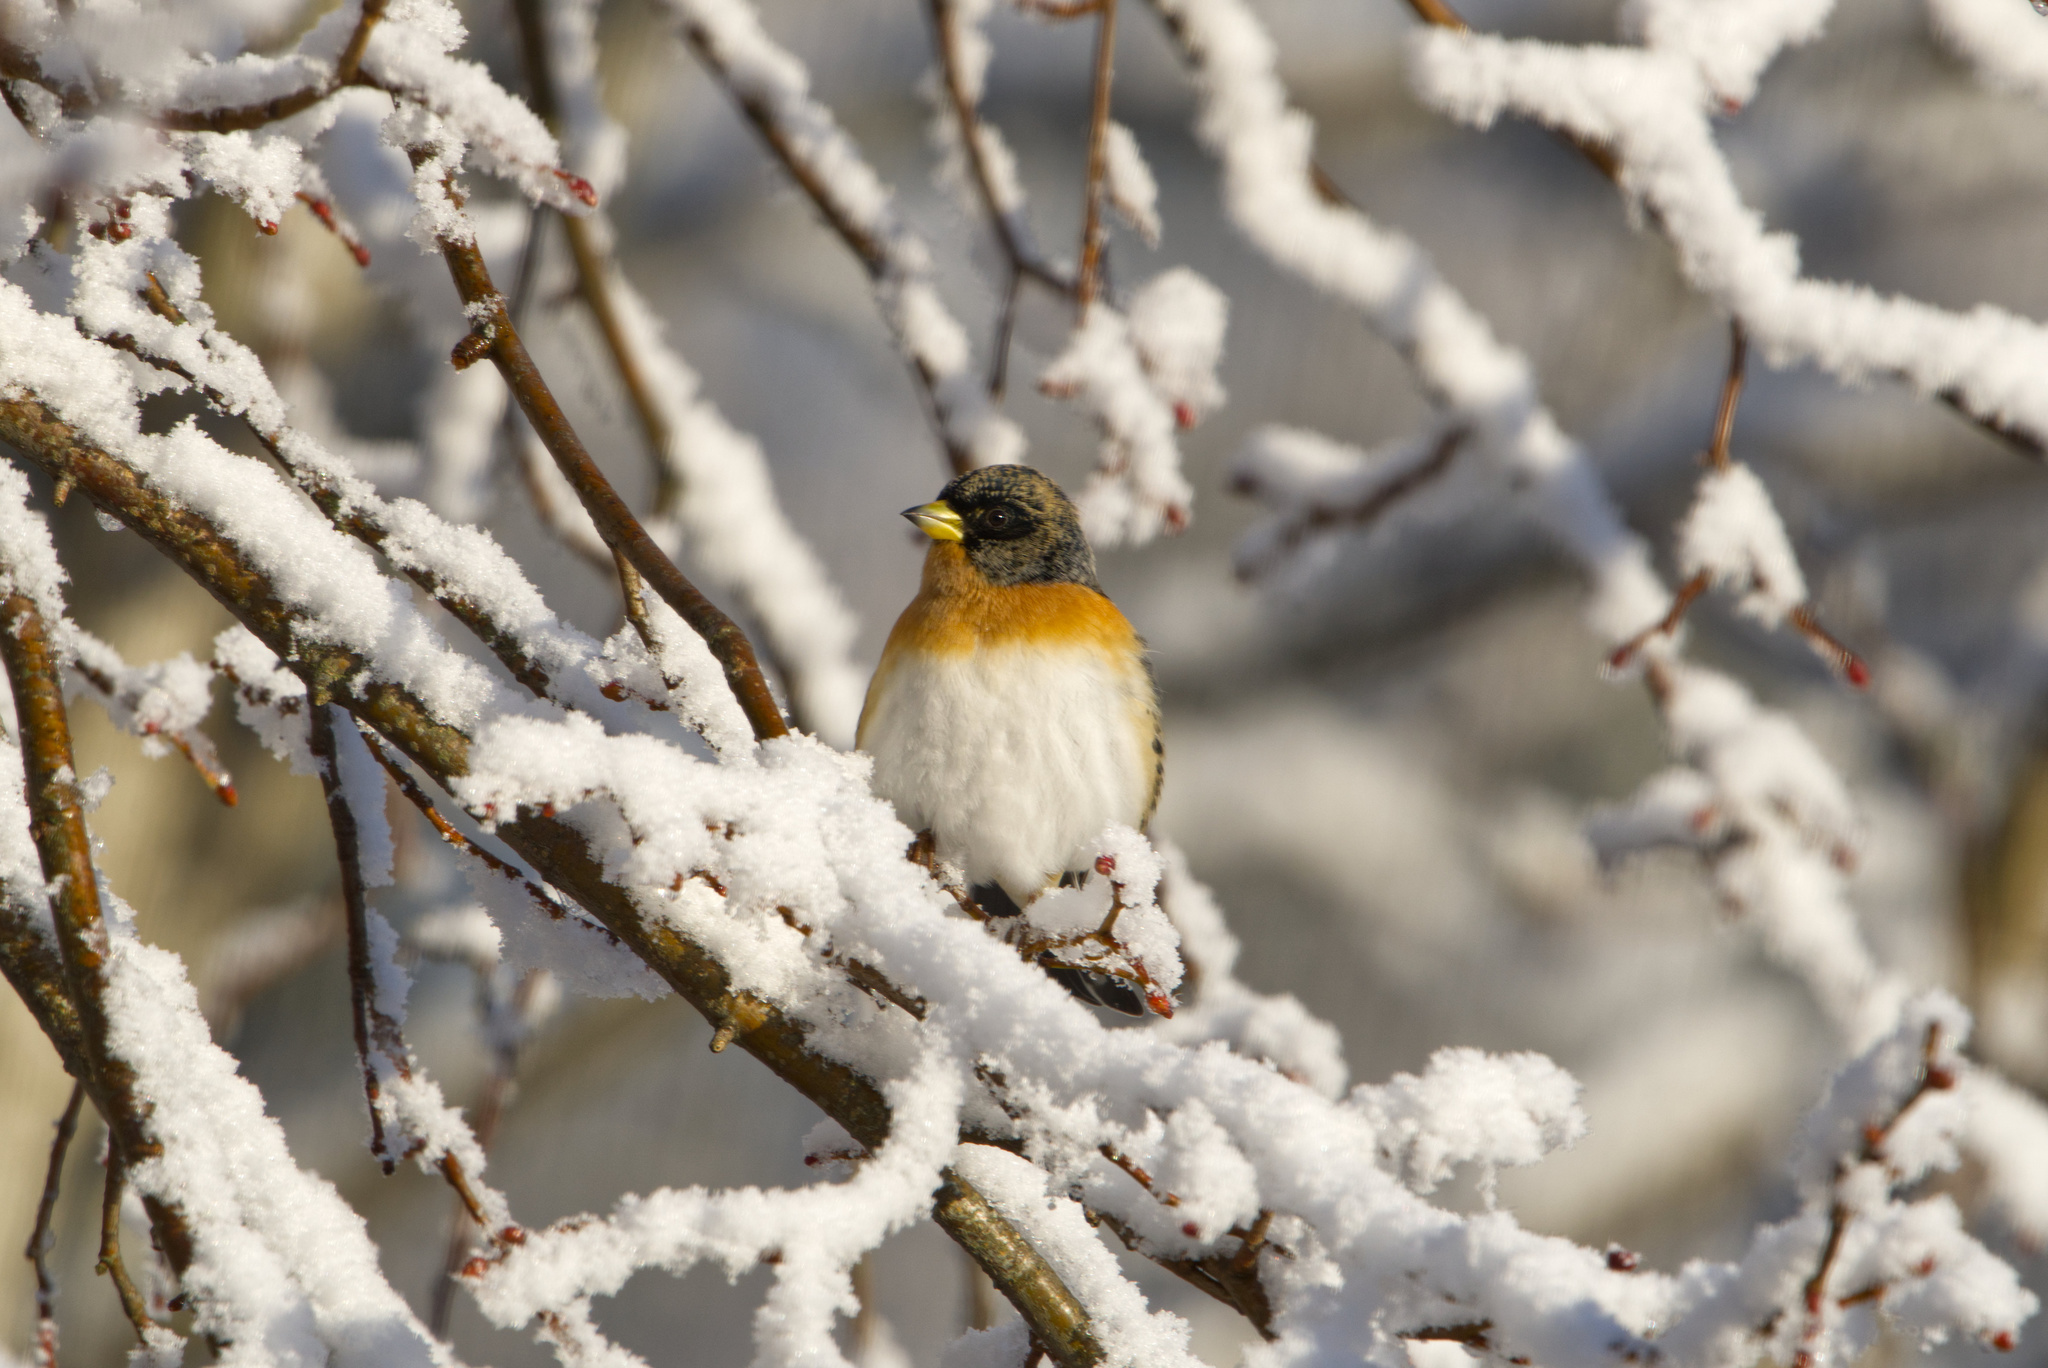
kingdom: Animalia
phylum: Chordata
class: Aves
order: Passeriformes
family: Fringillidae
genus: Fringilla
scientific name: Fringilla montifringilla
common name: Brambling
